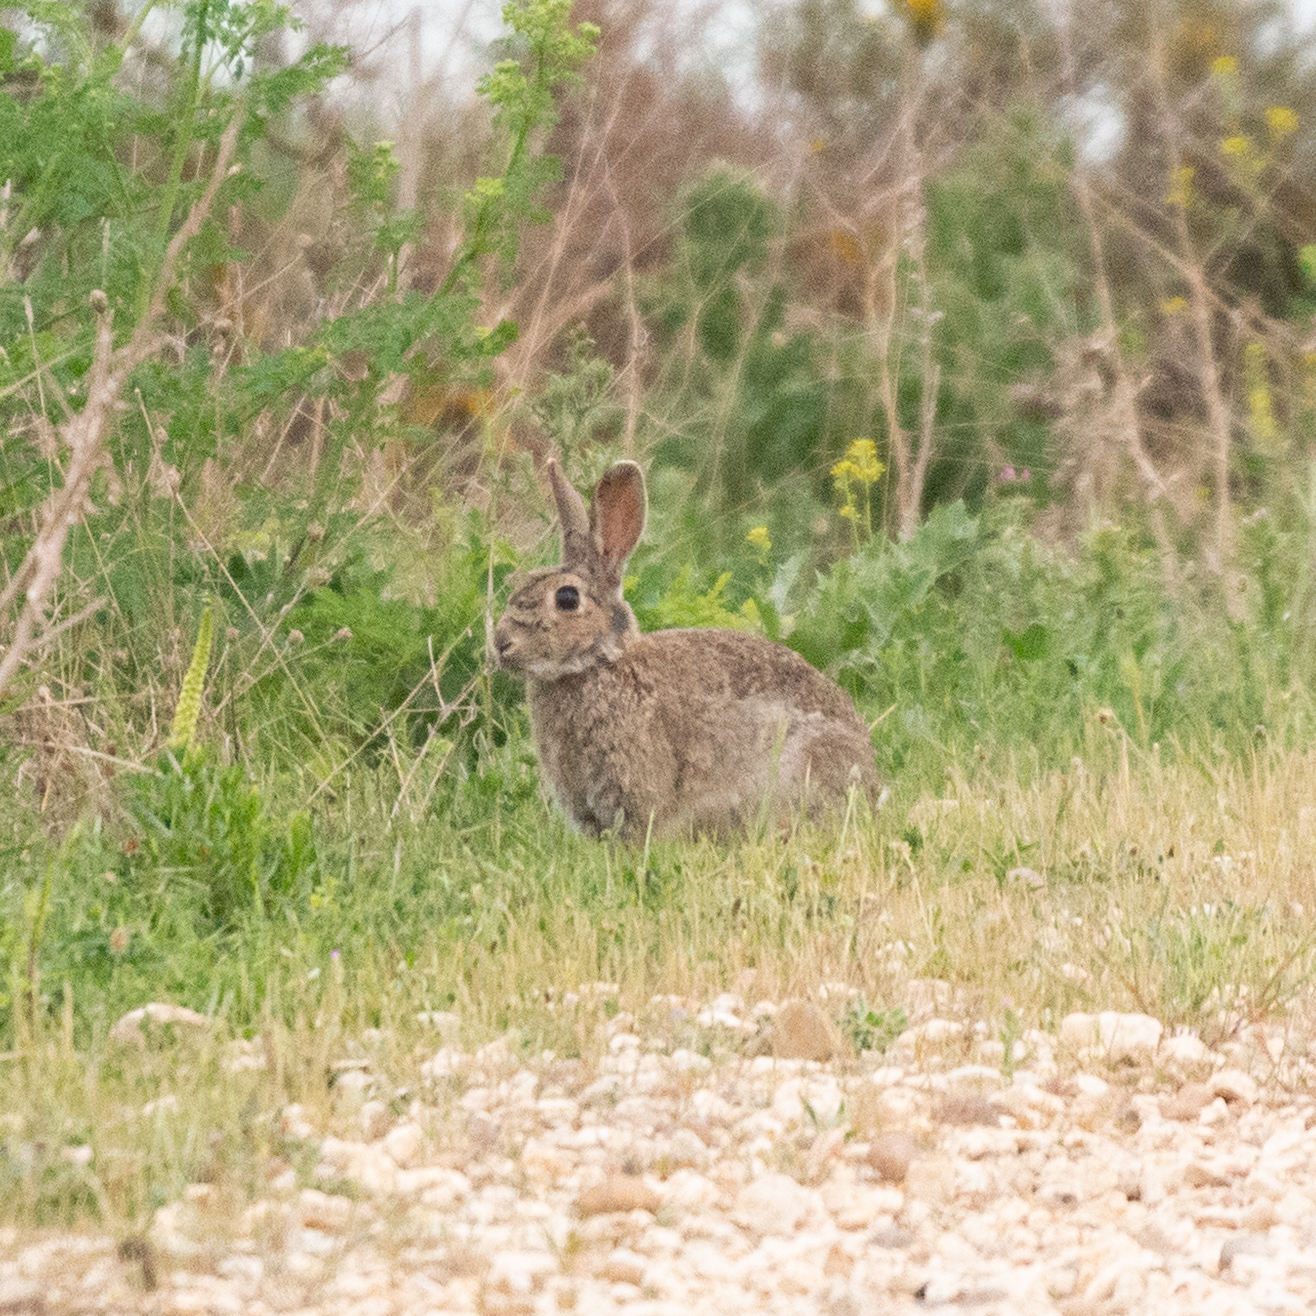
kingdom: Animalia
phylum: Chordata
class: Mammalia
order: Lagomorpha
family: Leporidae
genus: Oryctolagus
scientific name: Oryctolagus cuniculus
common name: European rabbit
